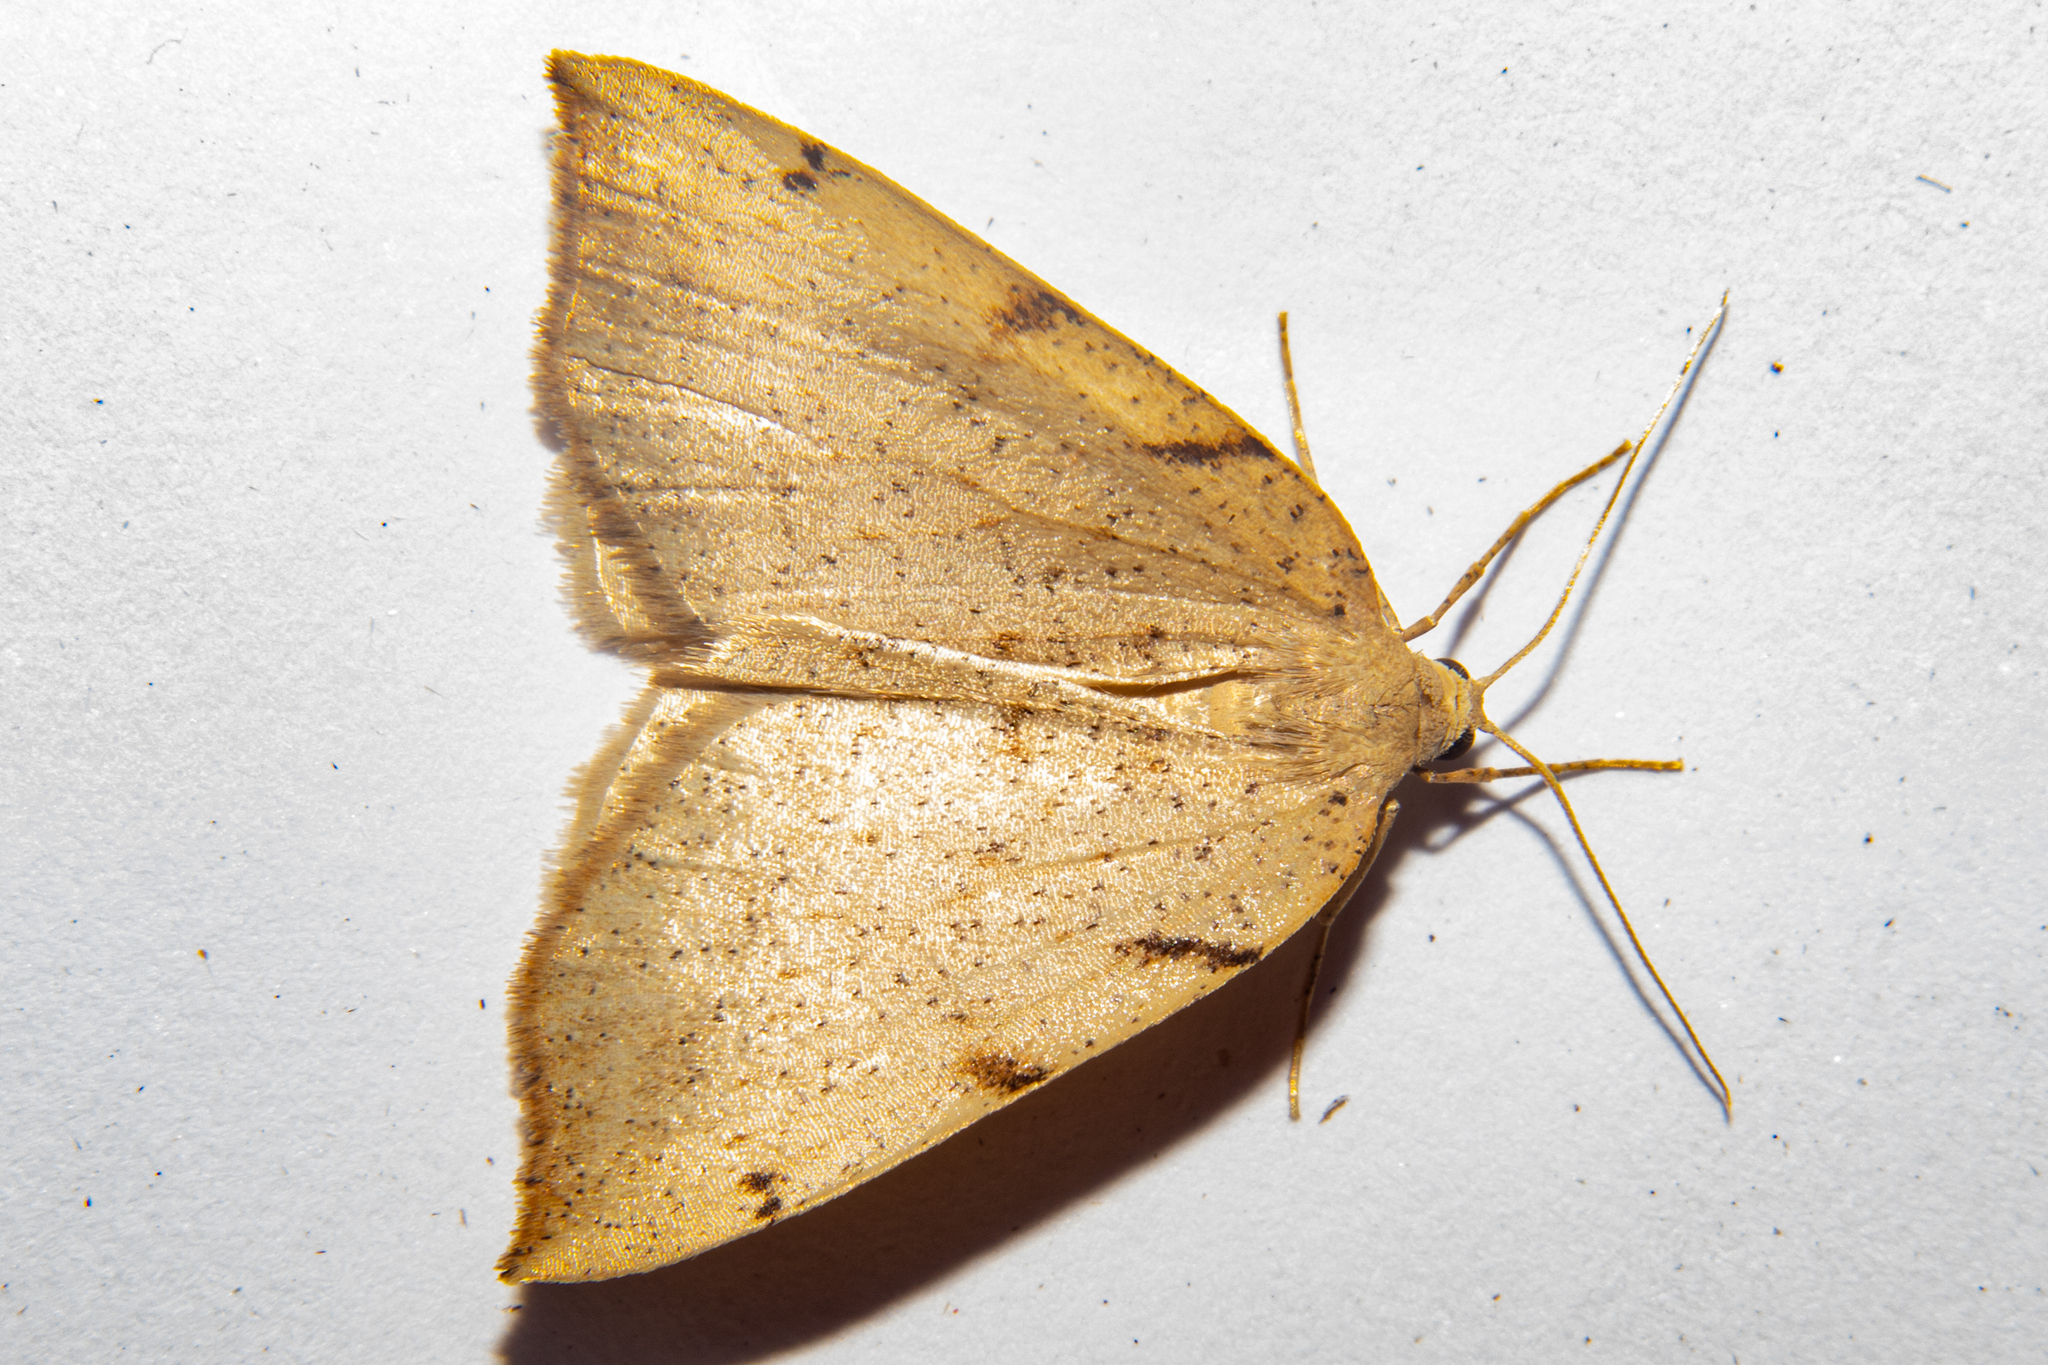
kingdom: Animalia
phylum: Arthropoda
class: Insecta
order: Lepidoptera
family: Geometridae
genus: Sestra
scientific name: Sestra humeraria
